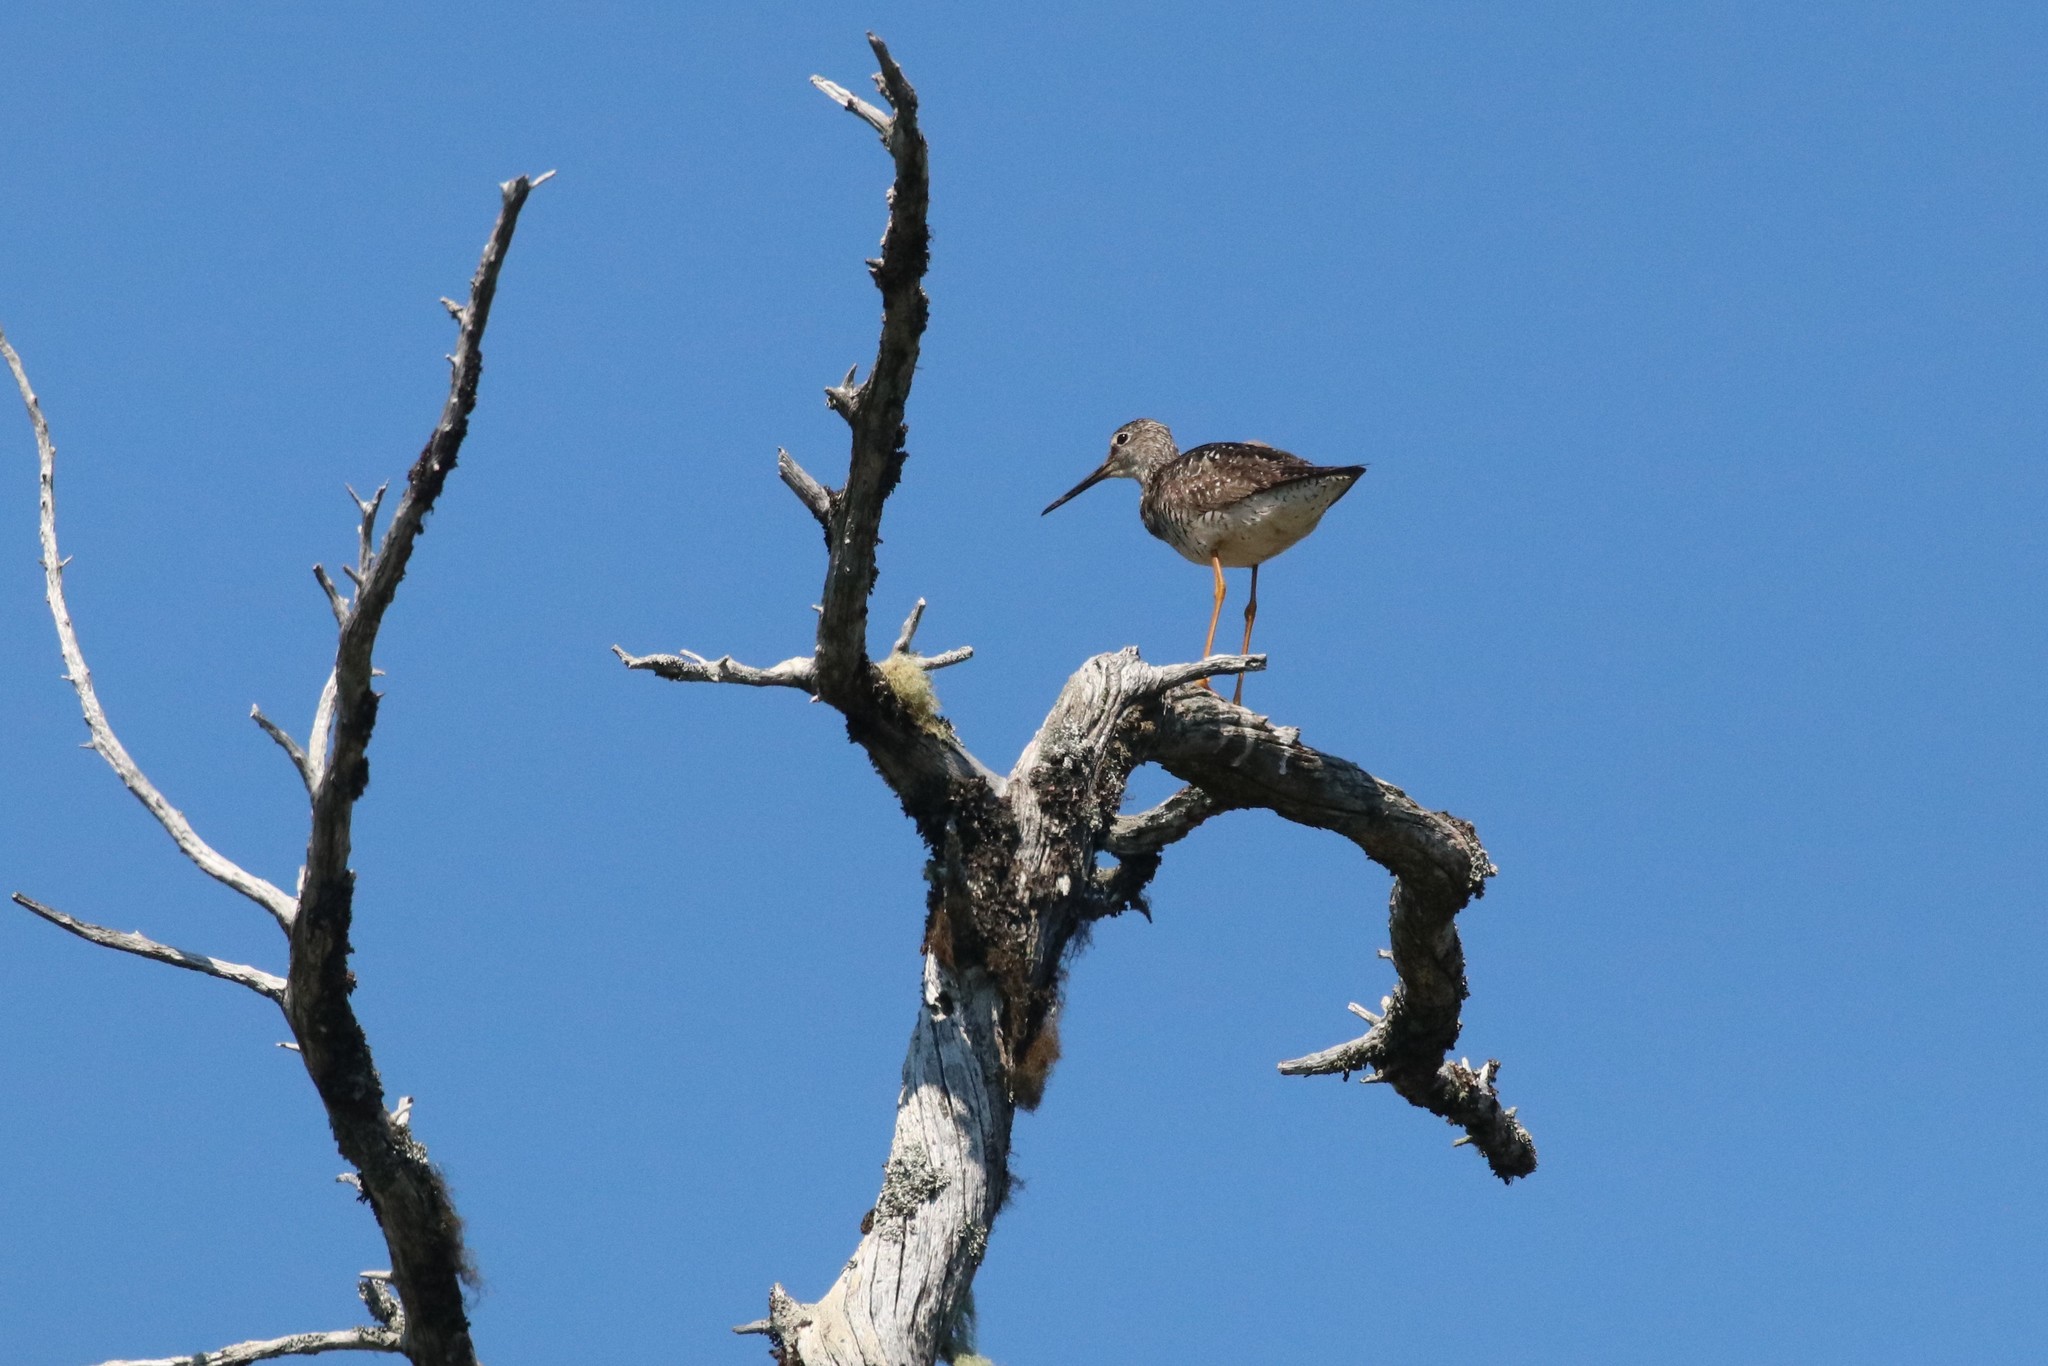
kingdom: Animalia
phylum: Chordata
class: Aves
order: Charadriiformes
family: Scolopacidae
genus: Tringa
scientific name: Tringa melanoleuca
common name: Greater yellowlegs
